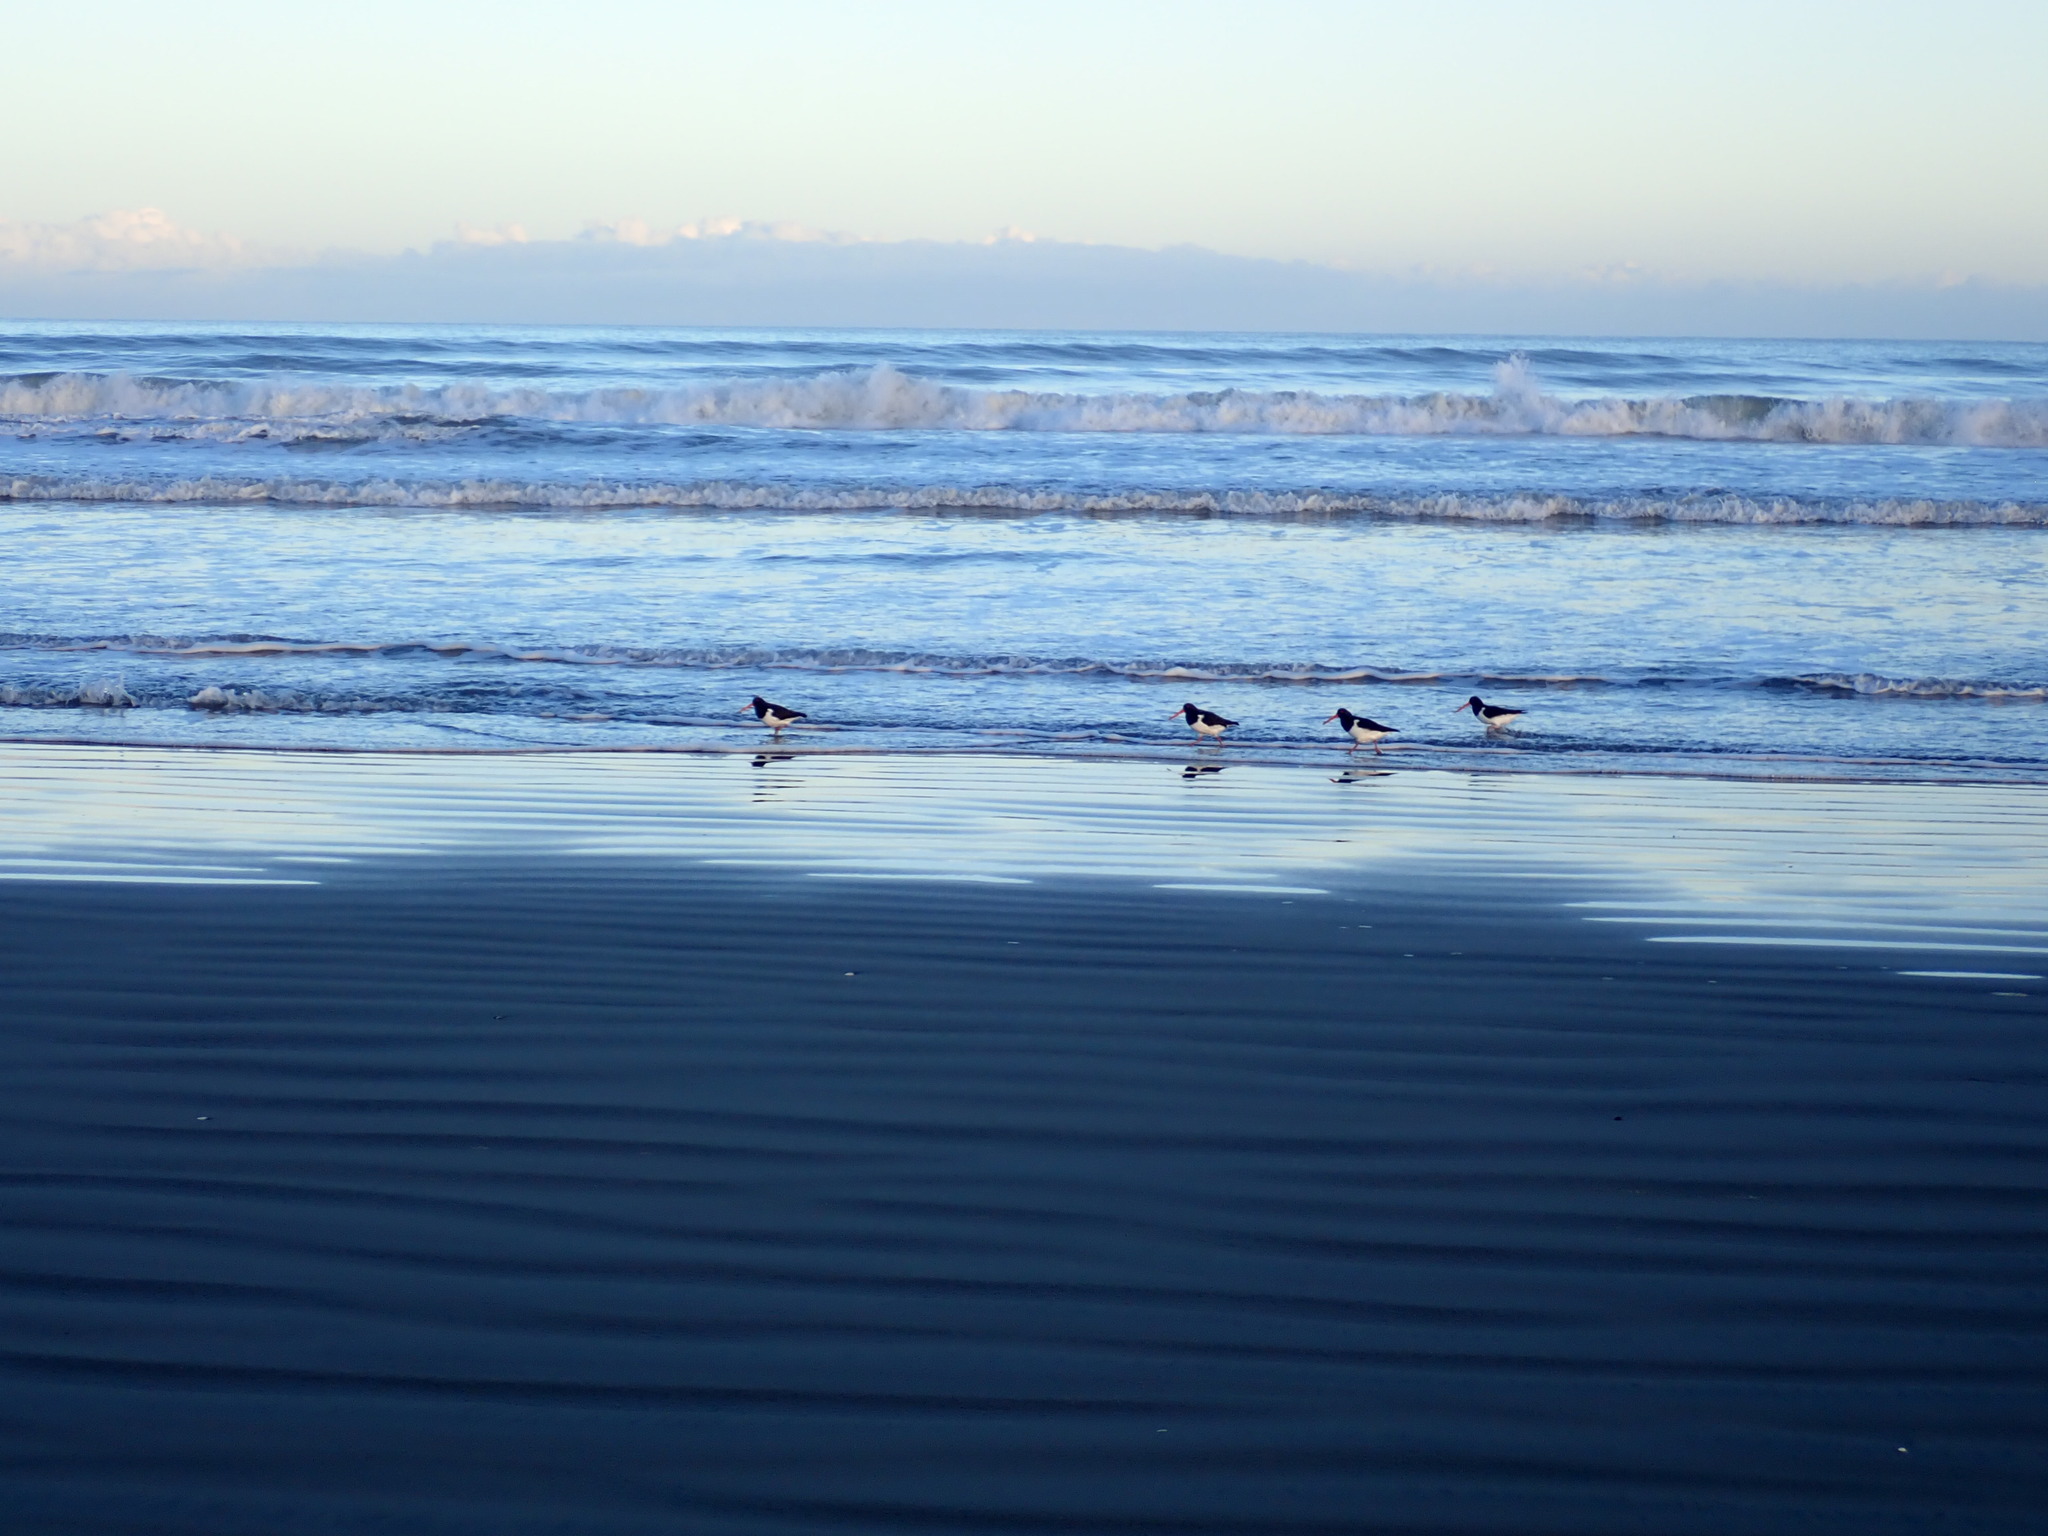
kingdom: Animalia
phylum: Chordata
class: Aves
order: Charadriiformes
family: Haematopodidae
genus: Haematopus
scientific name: Haematopus finschi
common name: South island oystercatcher
